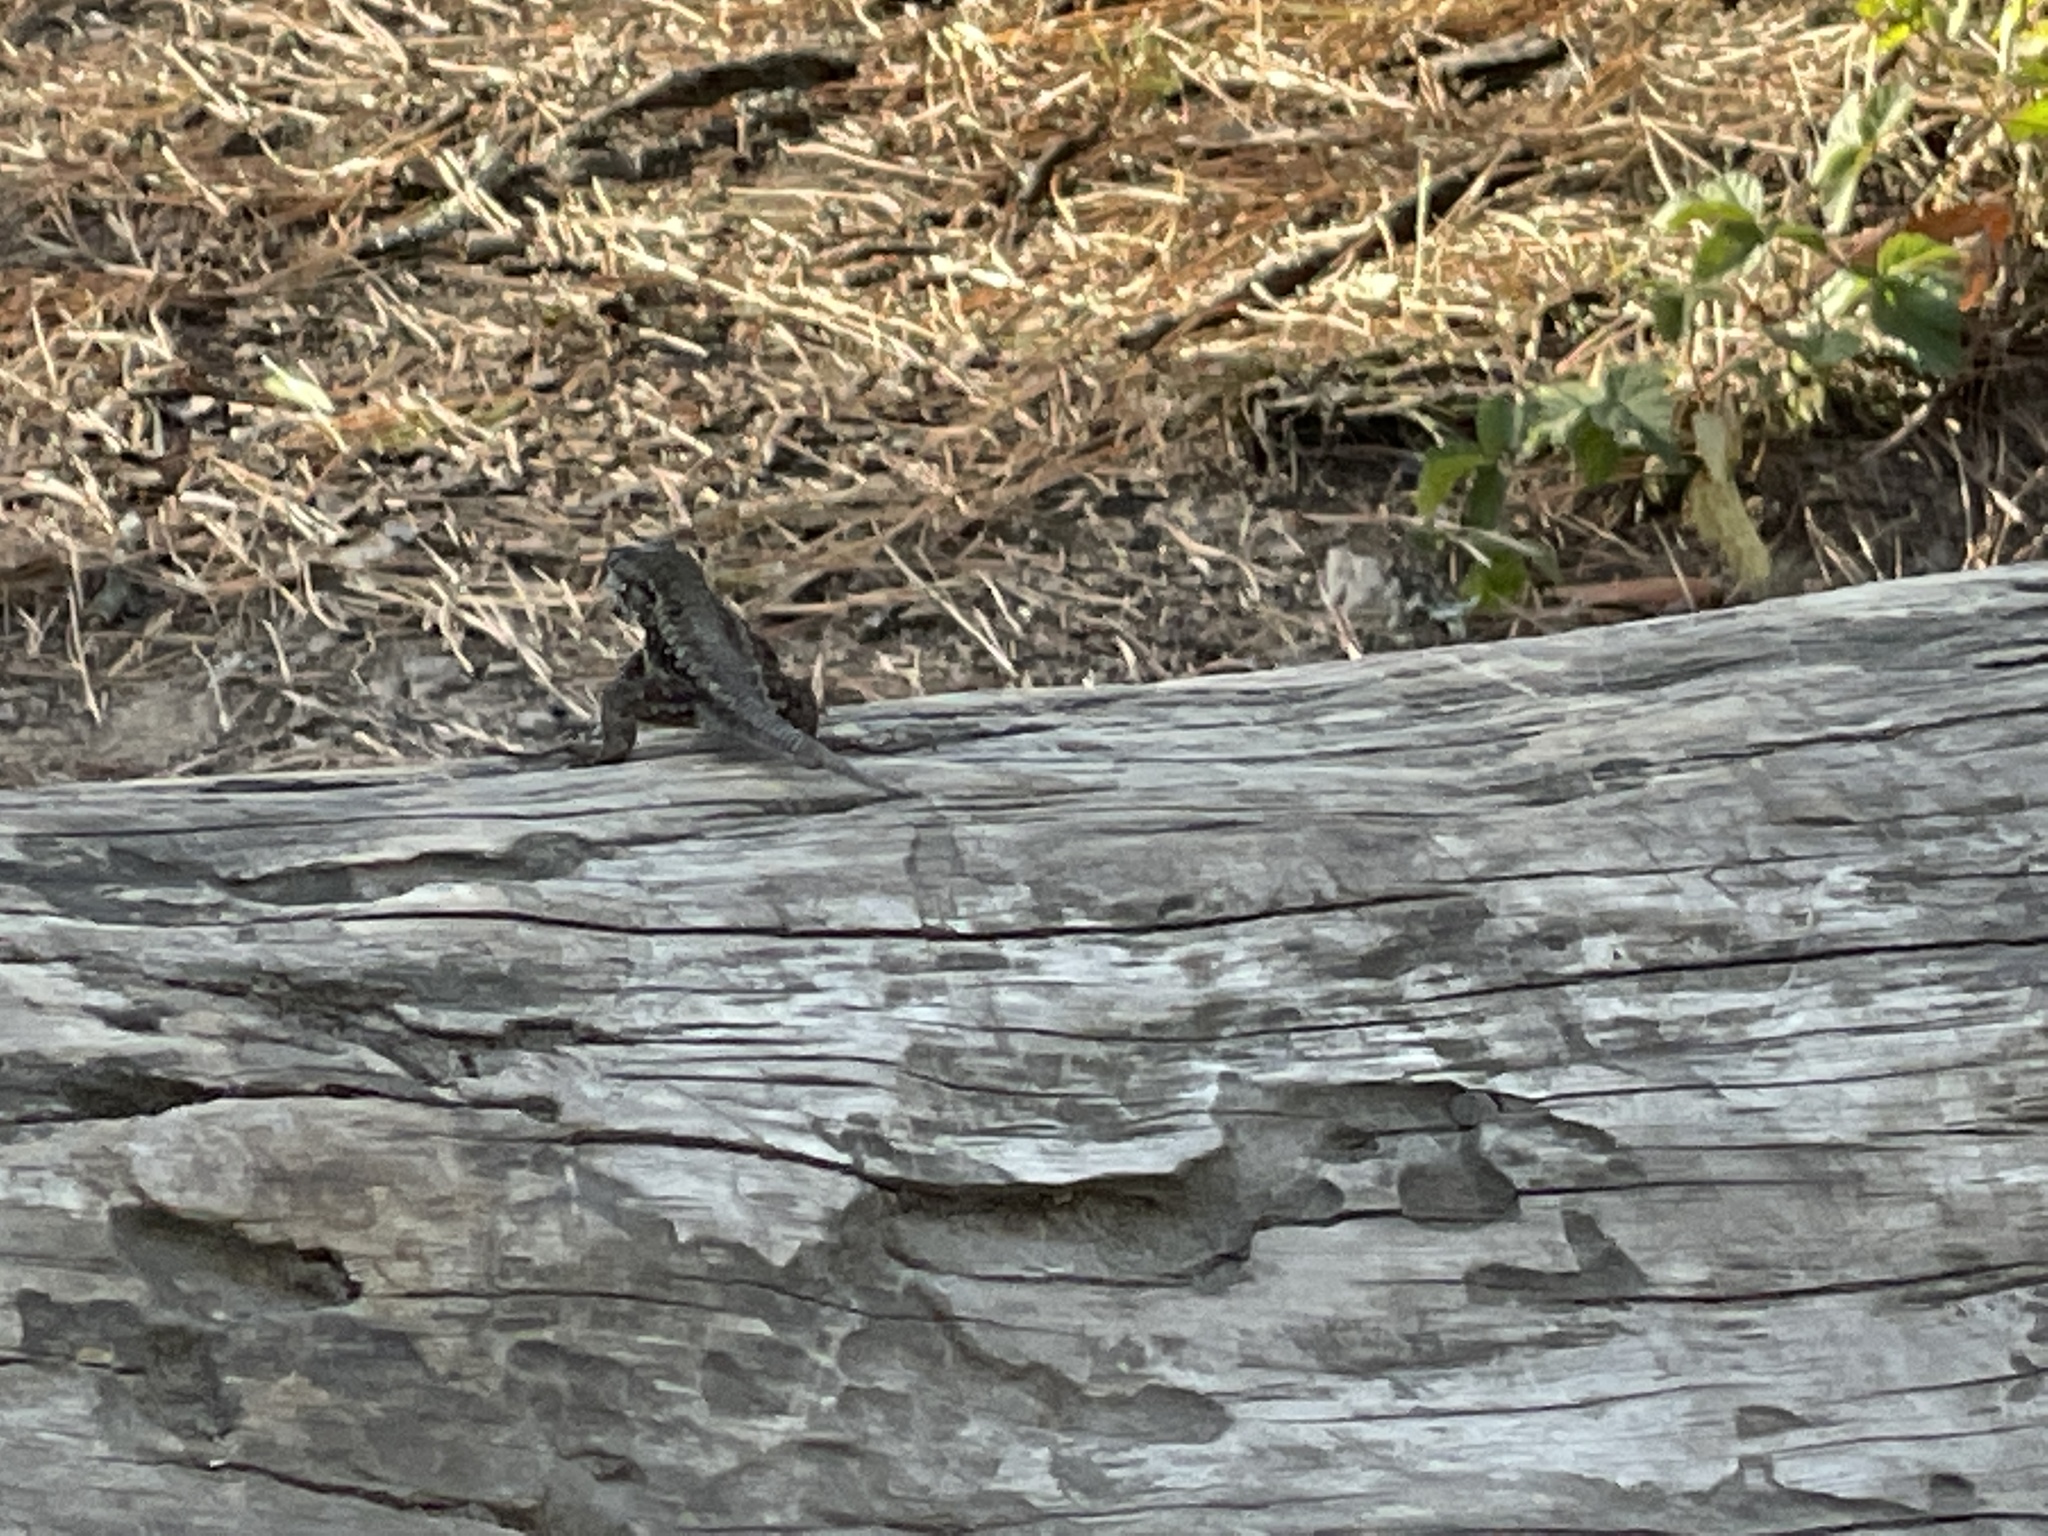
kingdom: Animalia
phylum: Chordata
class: Squamata
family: Phrynosomatidae
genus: Sceloporus
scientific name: Sceloporus occidentalis
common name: Western fence lizard
